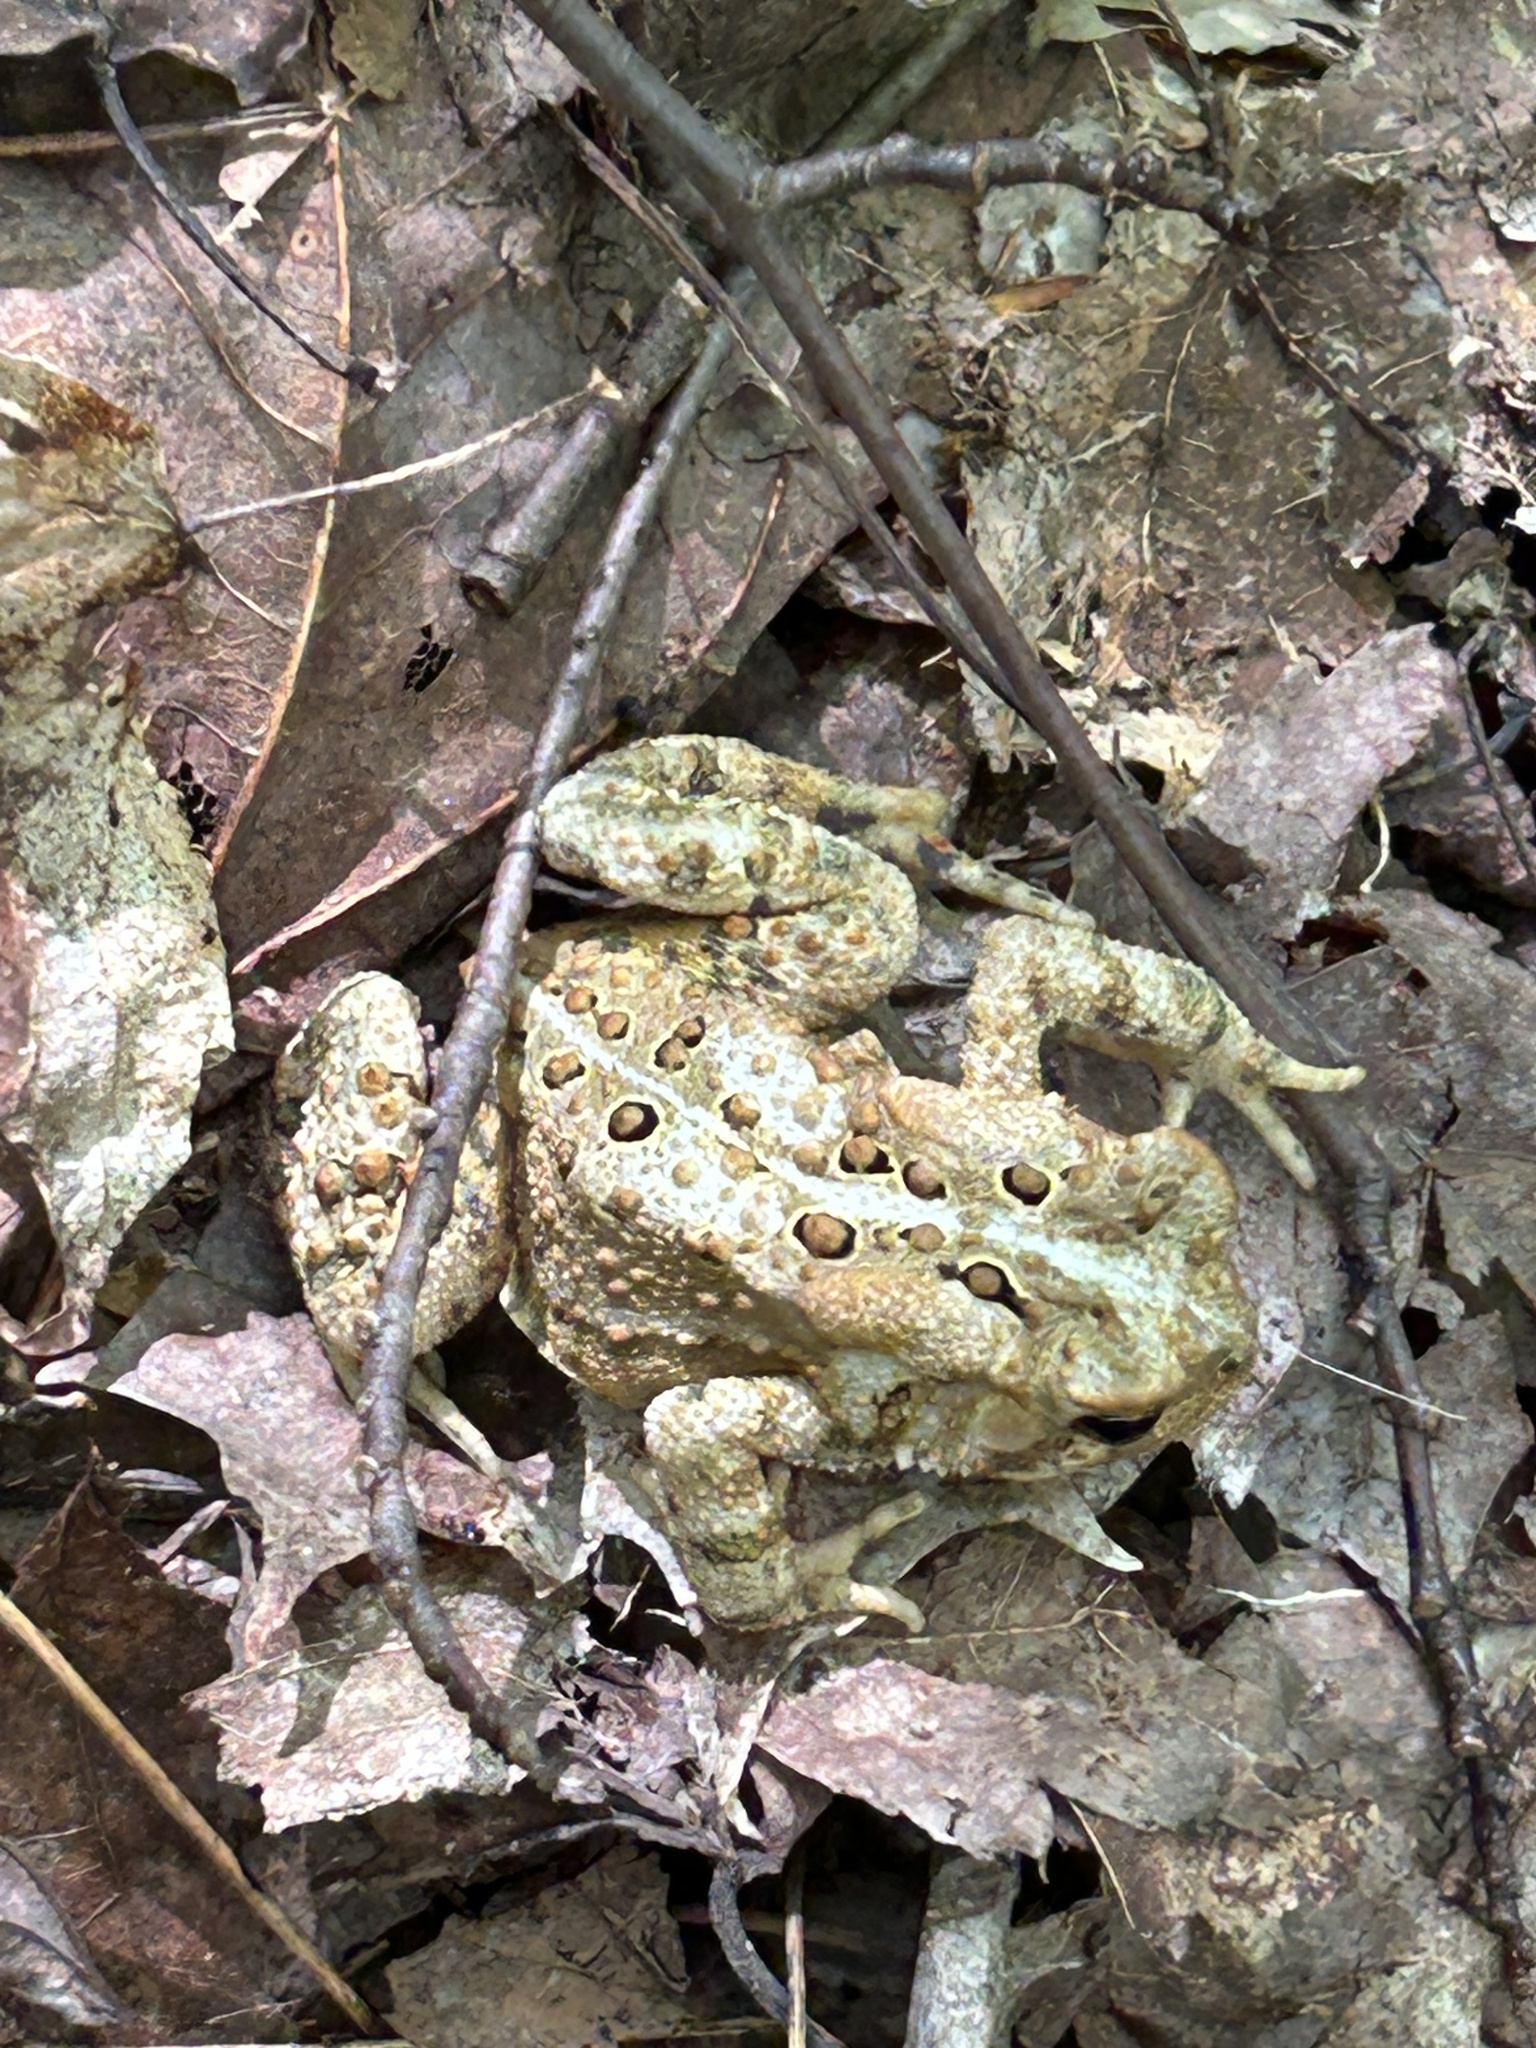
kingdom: Animalia
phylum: Chordata
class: Amphibia
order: Anura
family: Bufonidae
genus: Anaxyrus
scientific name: Anaxyrus americanus
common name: American toad
